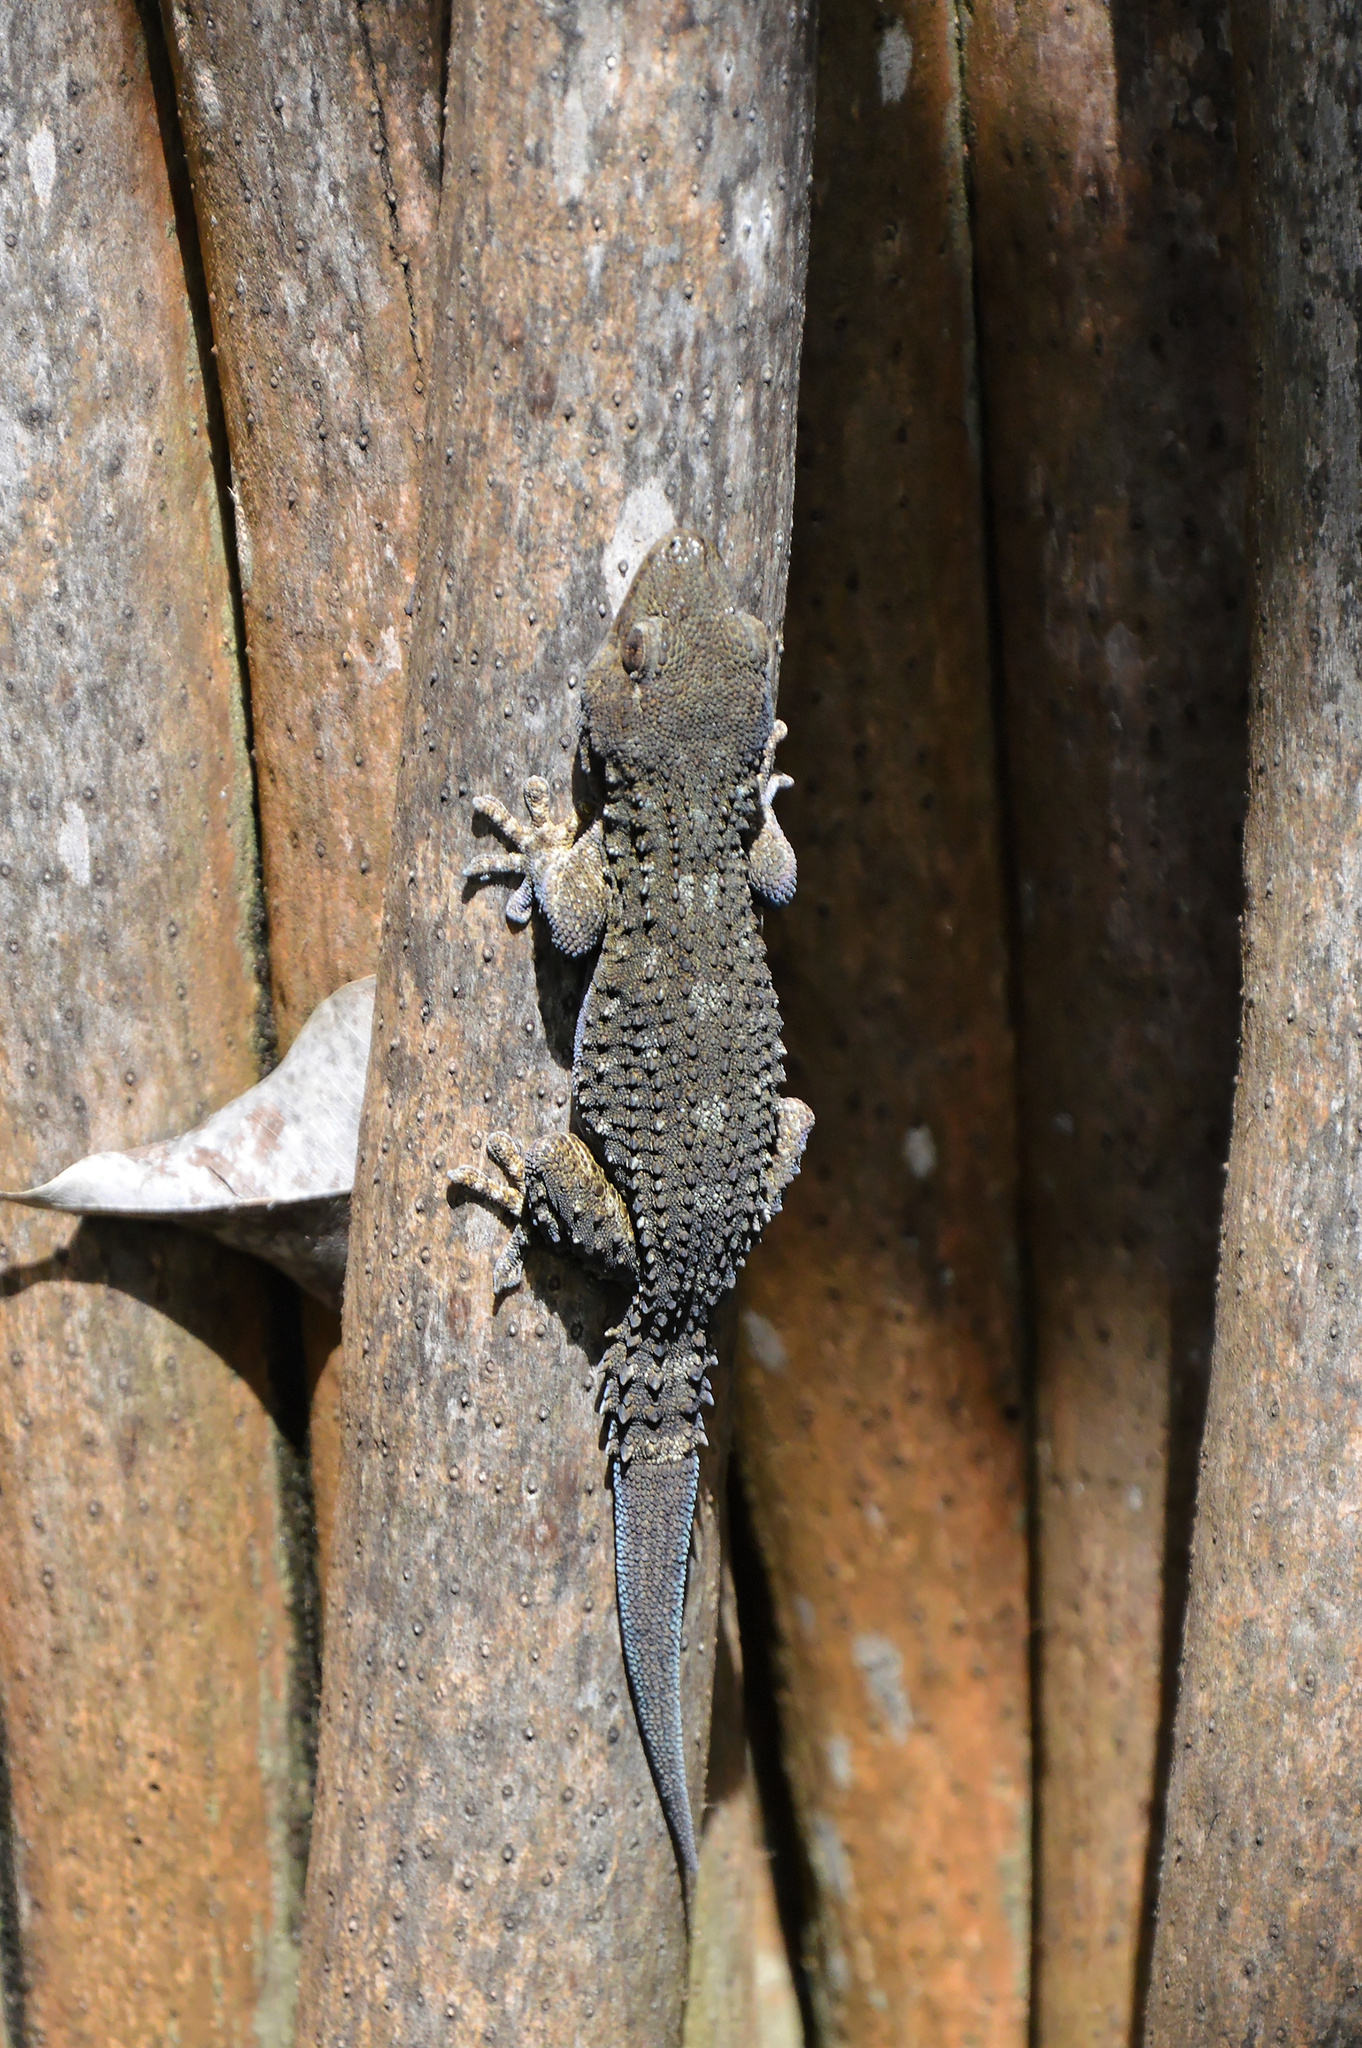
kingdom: Animalia
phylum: Chordata
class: Squamata
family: Phyllodactylidae
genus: Tarentola
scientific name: Tarentola delalandii
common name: Tenerife wall gecko
